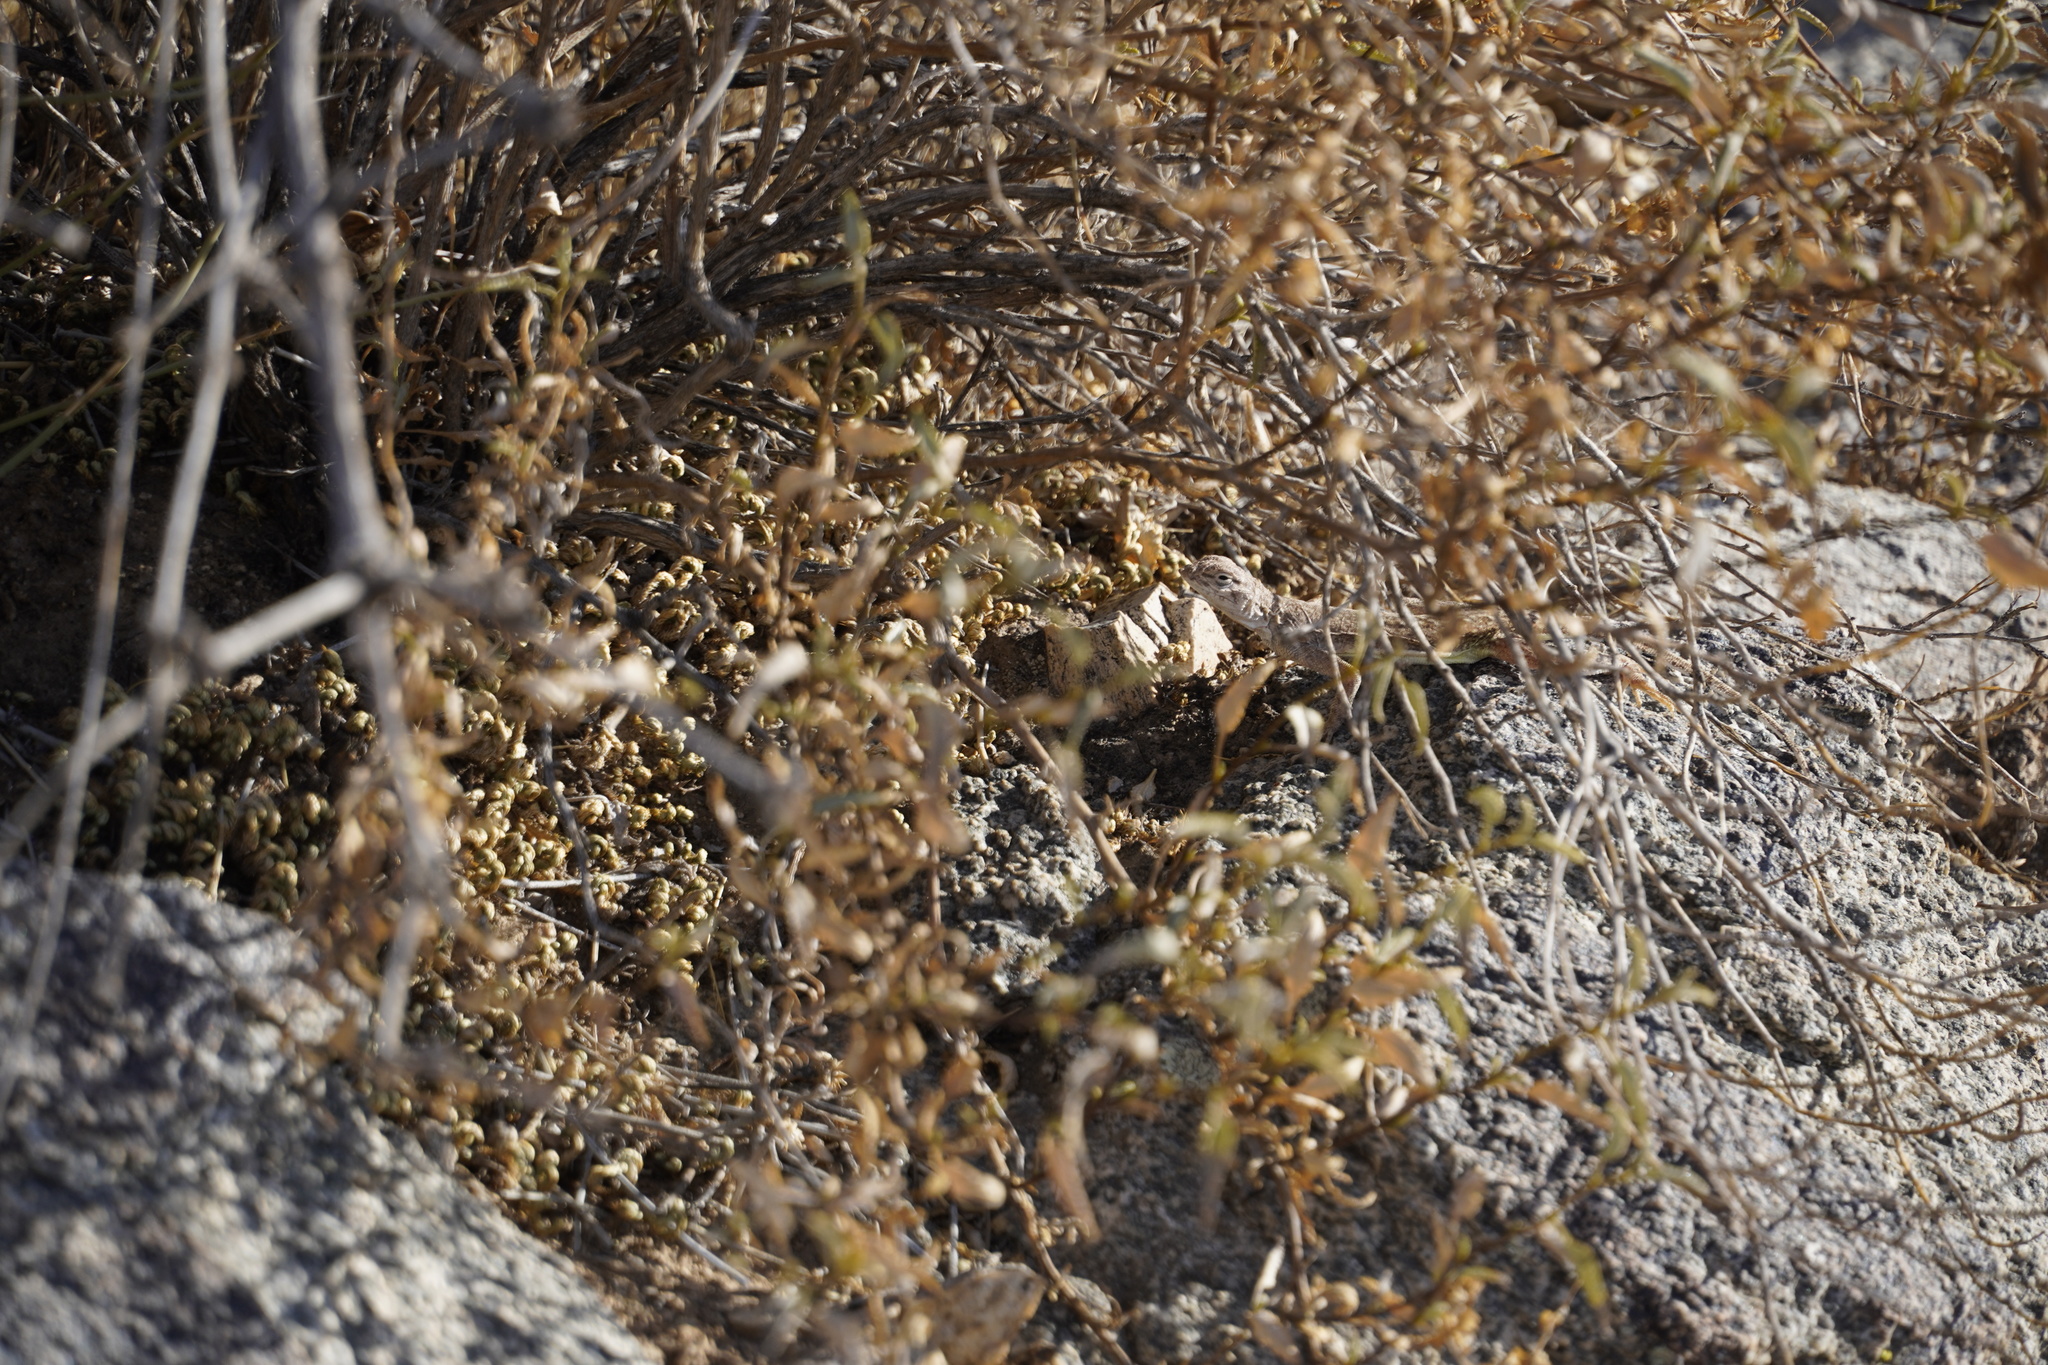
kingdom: Animalia
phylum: Chordata
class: Squamata
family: Phrynosomatidae
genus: Callisaurus
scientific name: Callisaurus draconoides
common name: Zebra-tailed lizard
